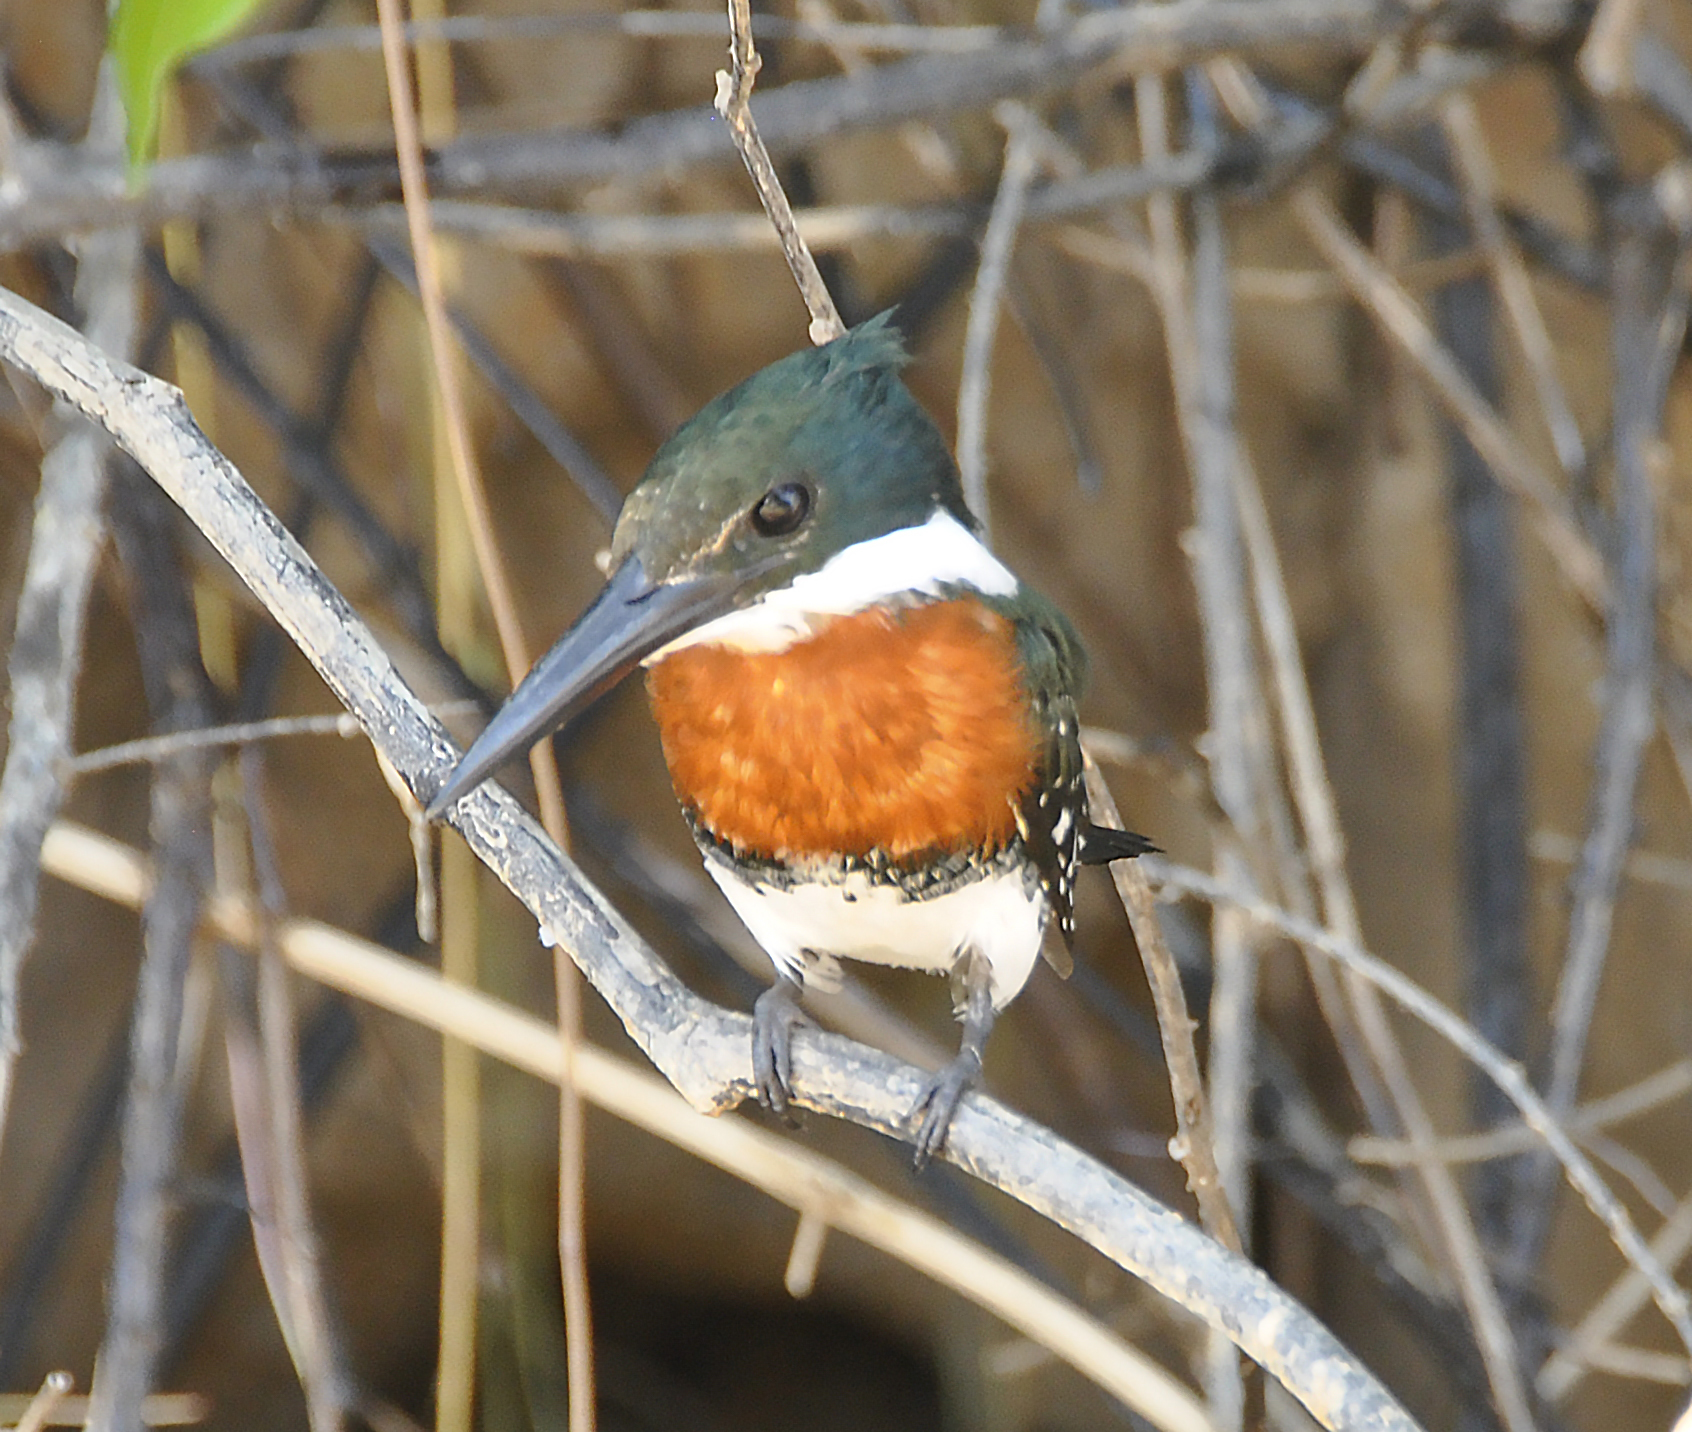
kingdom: Animalia
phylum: Chordata
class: Aves
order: Coraciiformes
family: Alcedinidae
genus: Chloroceryle
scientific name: Chloroceryle americana
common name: Green kingfisher
